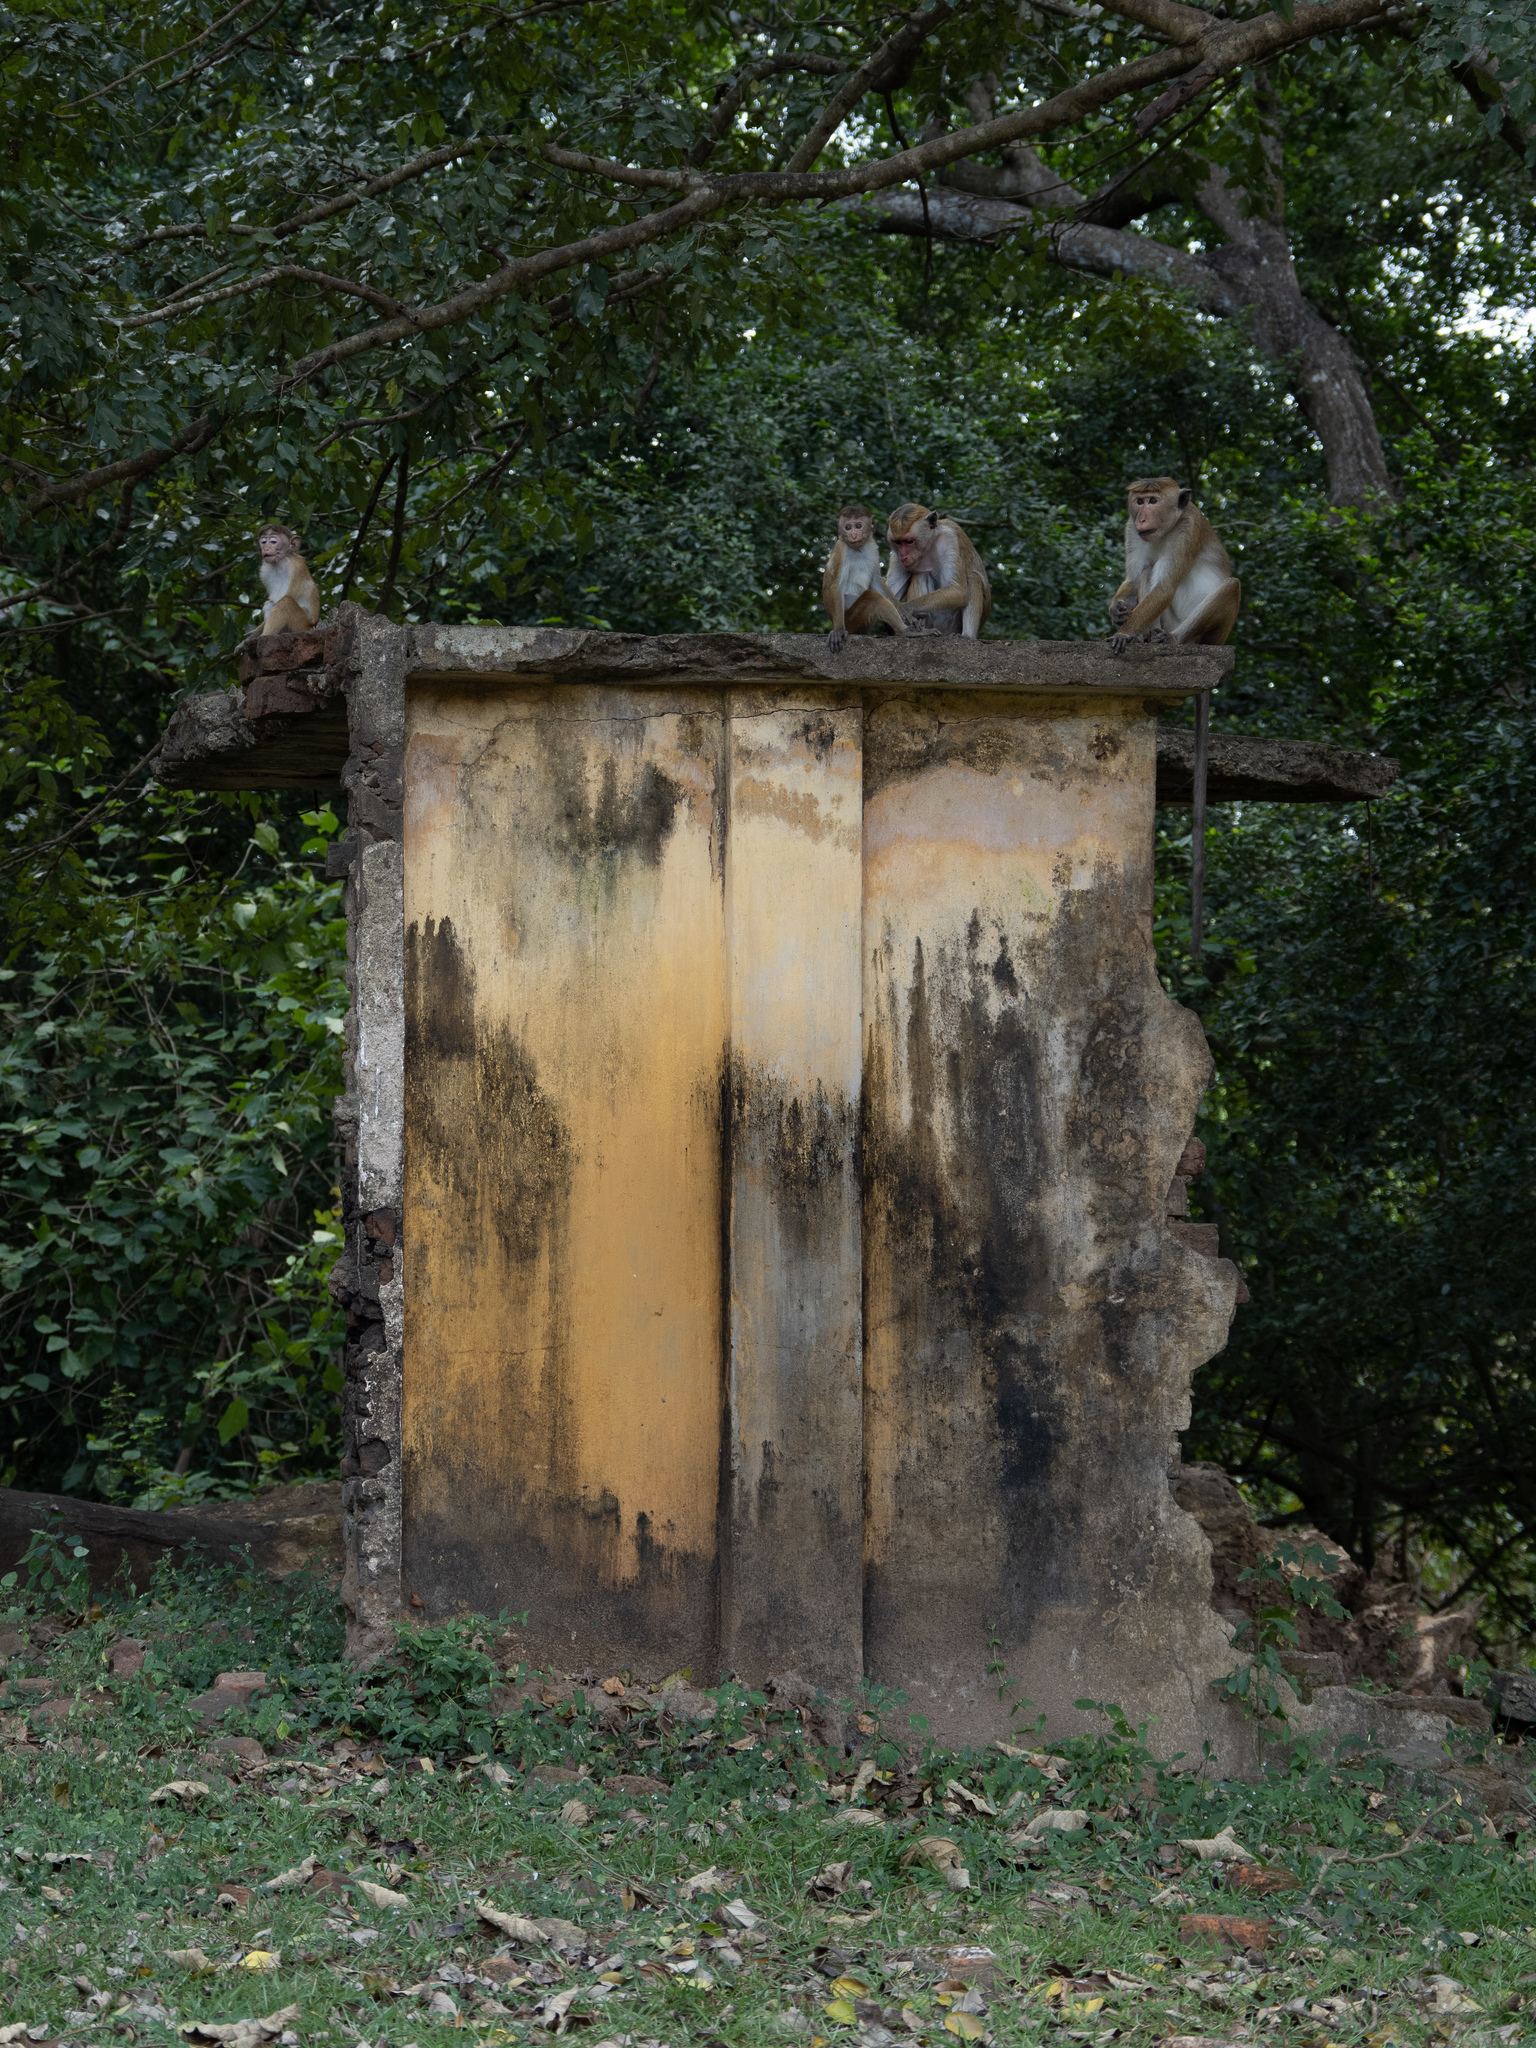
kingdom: Animalia
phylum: Chordata
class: Mammalia
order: Primates
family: Cercopithecidae
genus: Macaca
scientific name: Macaca sinica
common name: Toque macaque
